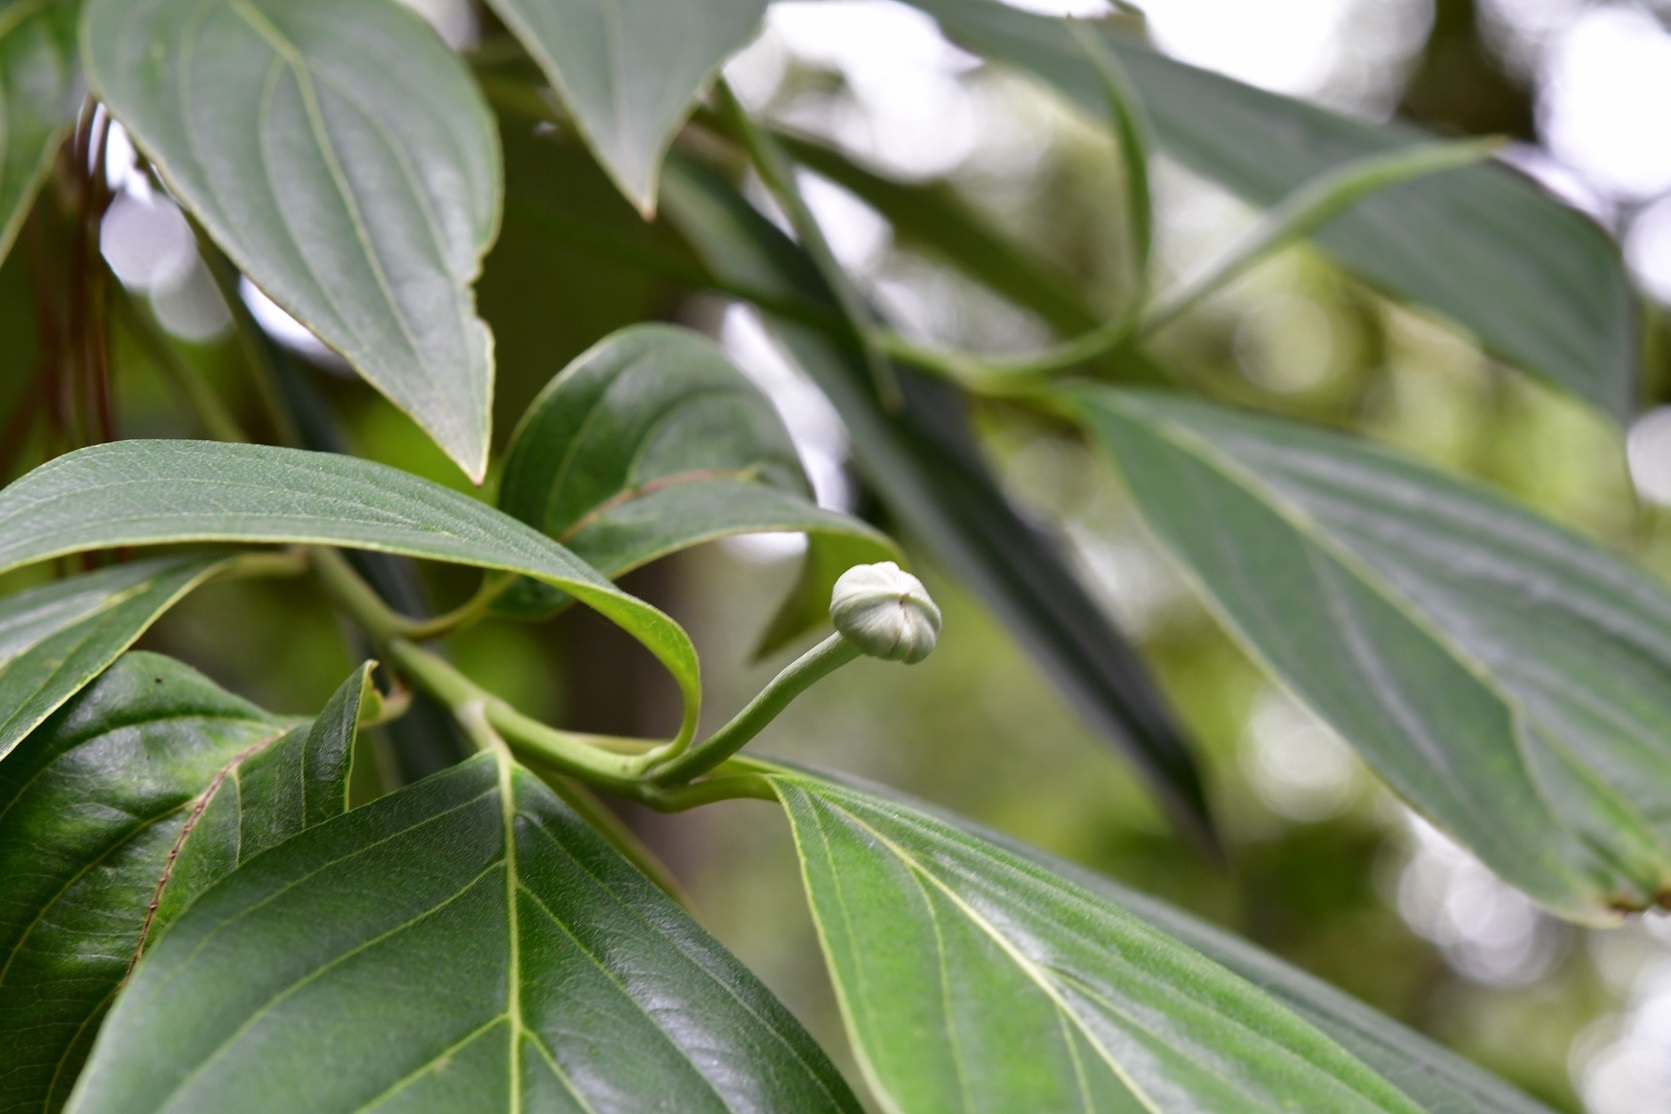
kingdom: Plantae
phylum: Tracheophyta
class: Magnoliopsida
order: Cornales
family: Cornaceae
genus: Cornus
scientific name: Cornus disciflora
